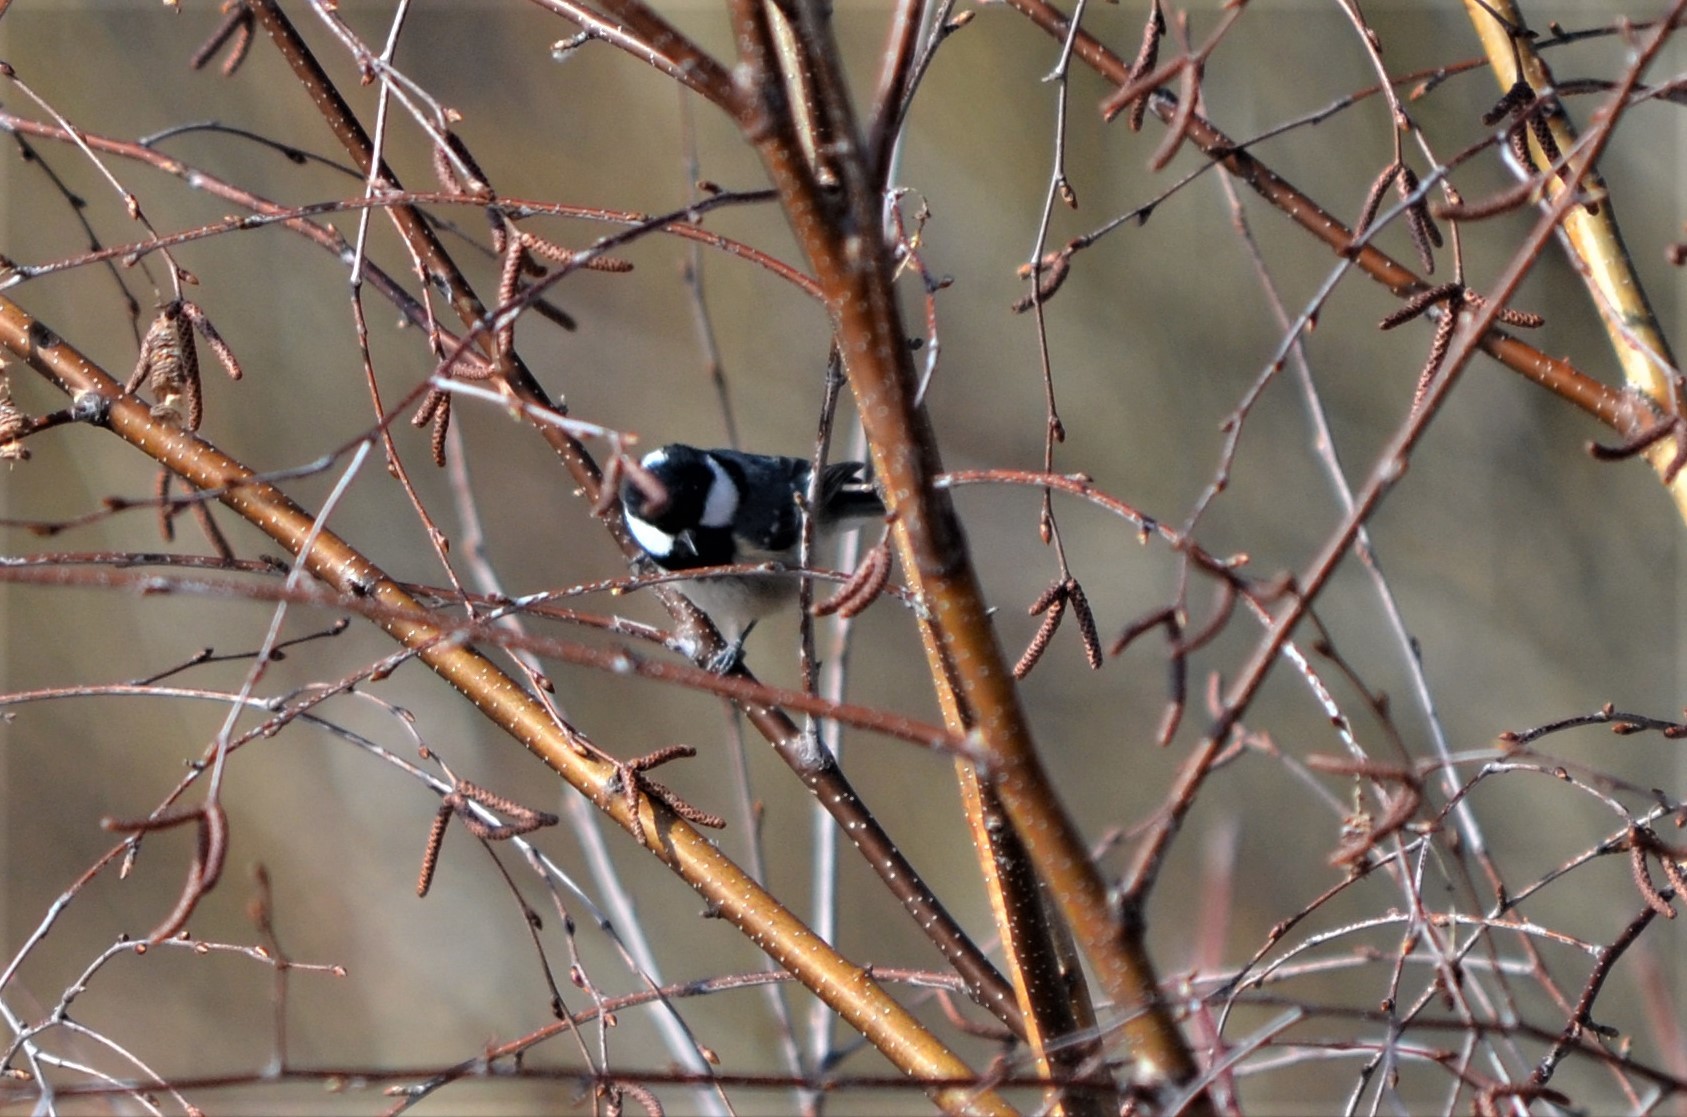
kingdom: Animalia
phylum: Chordata
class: Aves
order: Passeriformes
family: Paridae
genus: Periparus
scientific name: Periparus ater
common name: Coal tit
